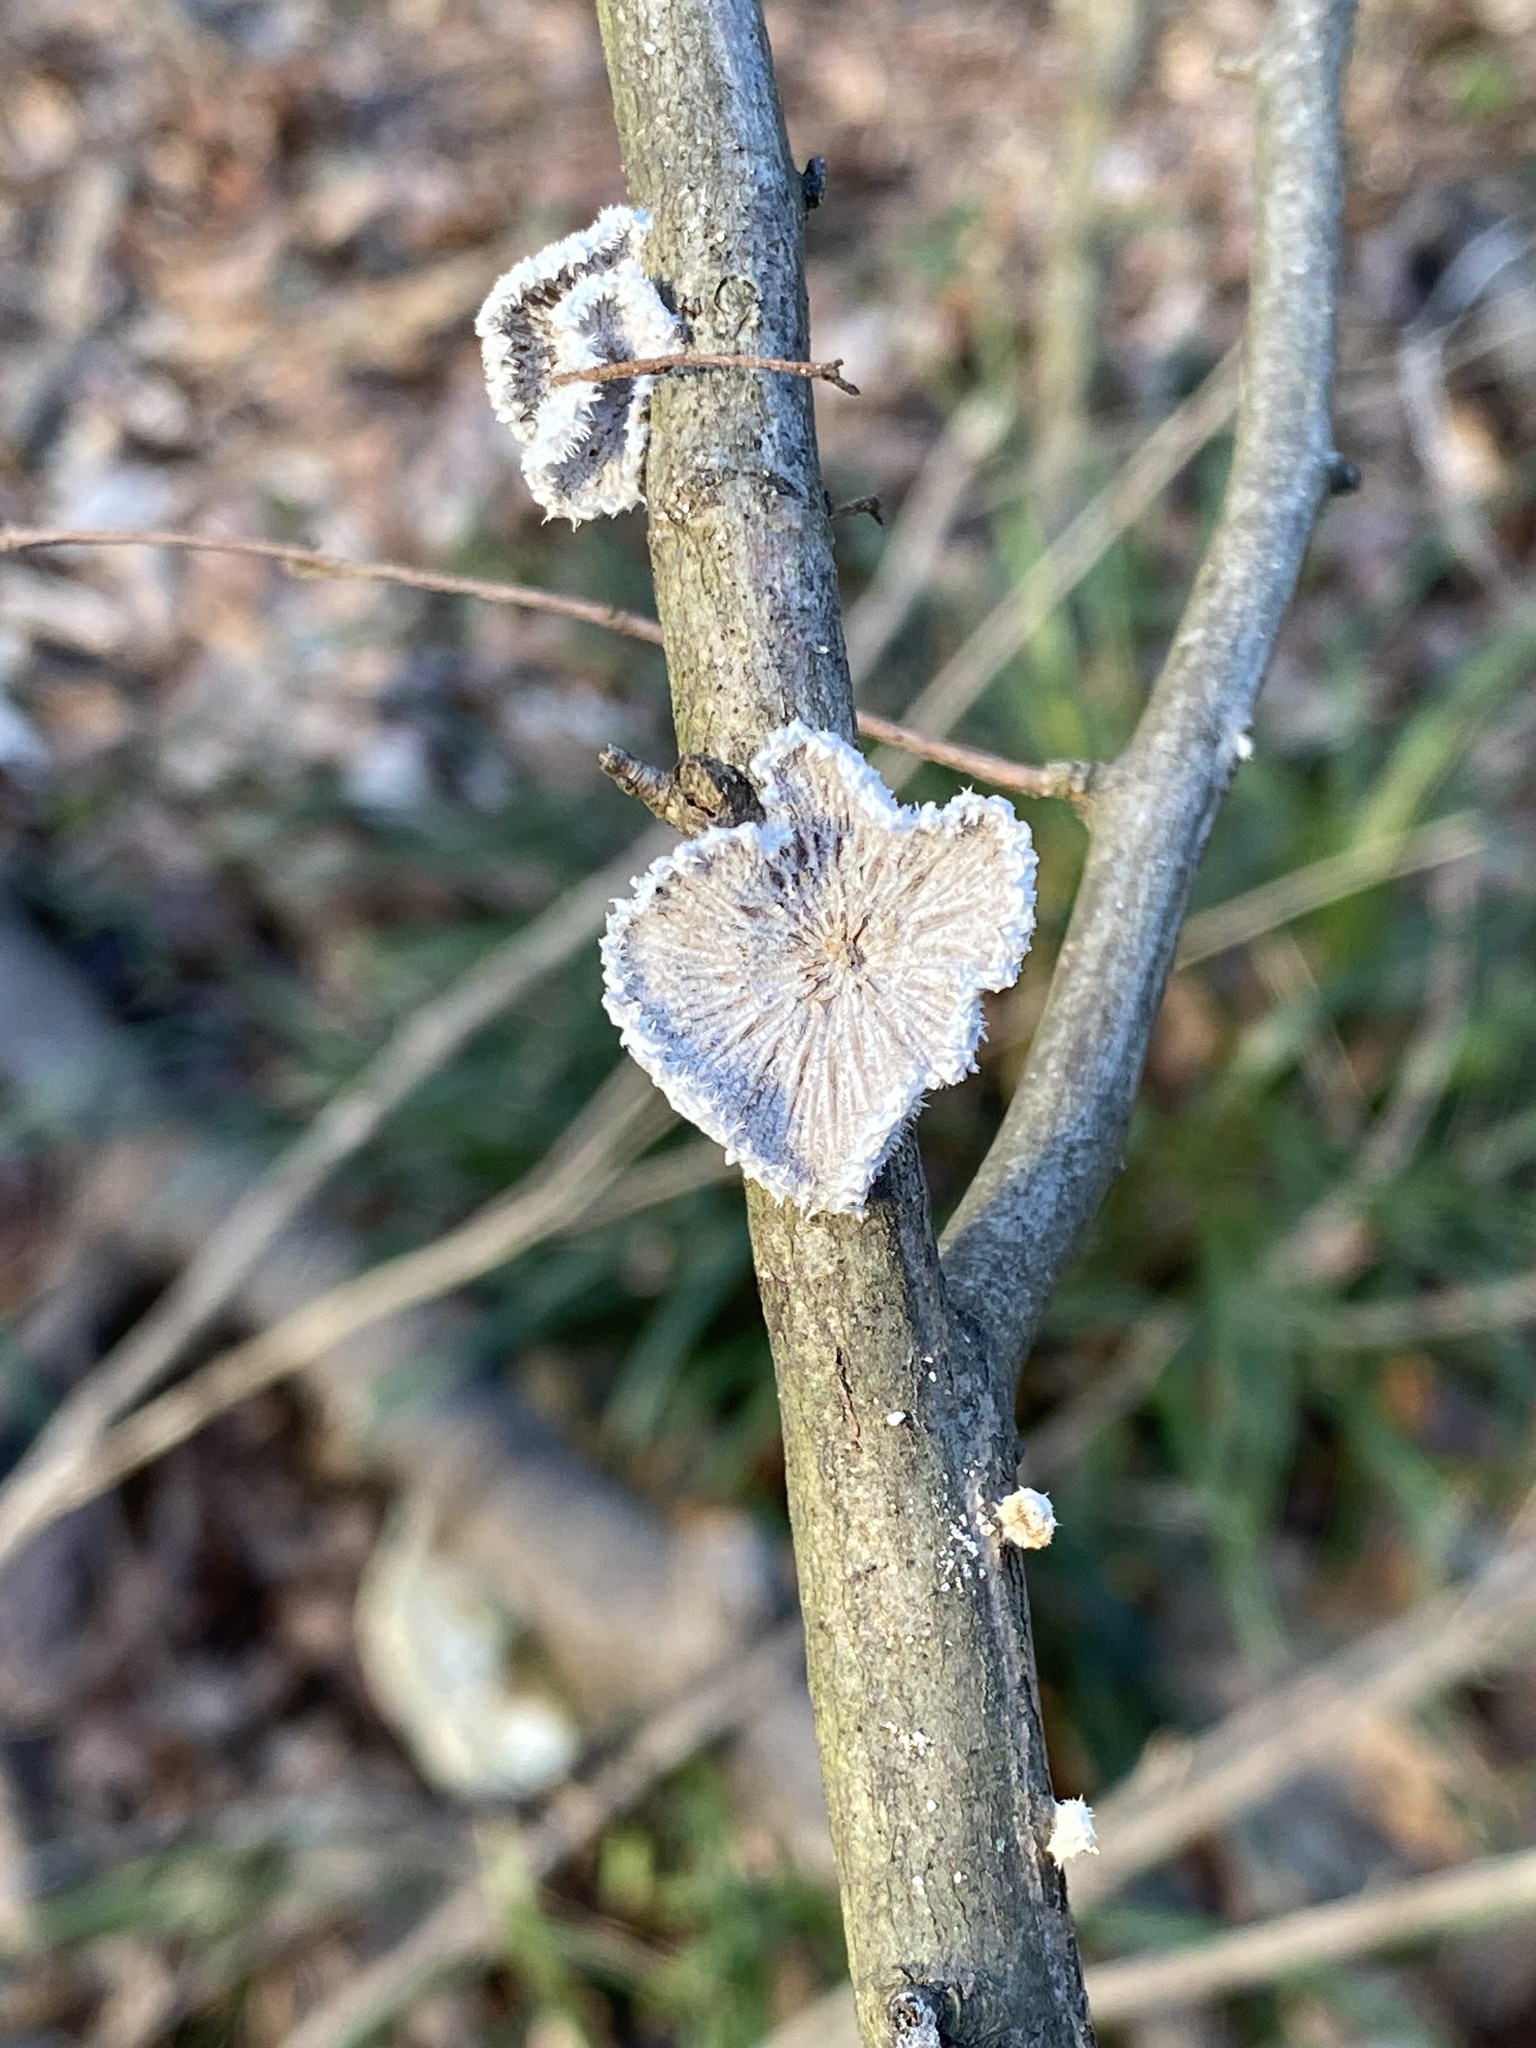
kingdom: Fungi
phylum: Basidiomycota
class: Agaricomycetes
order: Agaricales
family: Schizophyllaceae
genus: Schizophyllum
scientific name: Schizophyllum commune
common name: Common porecrust
